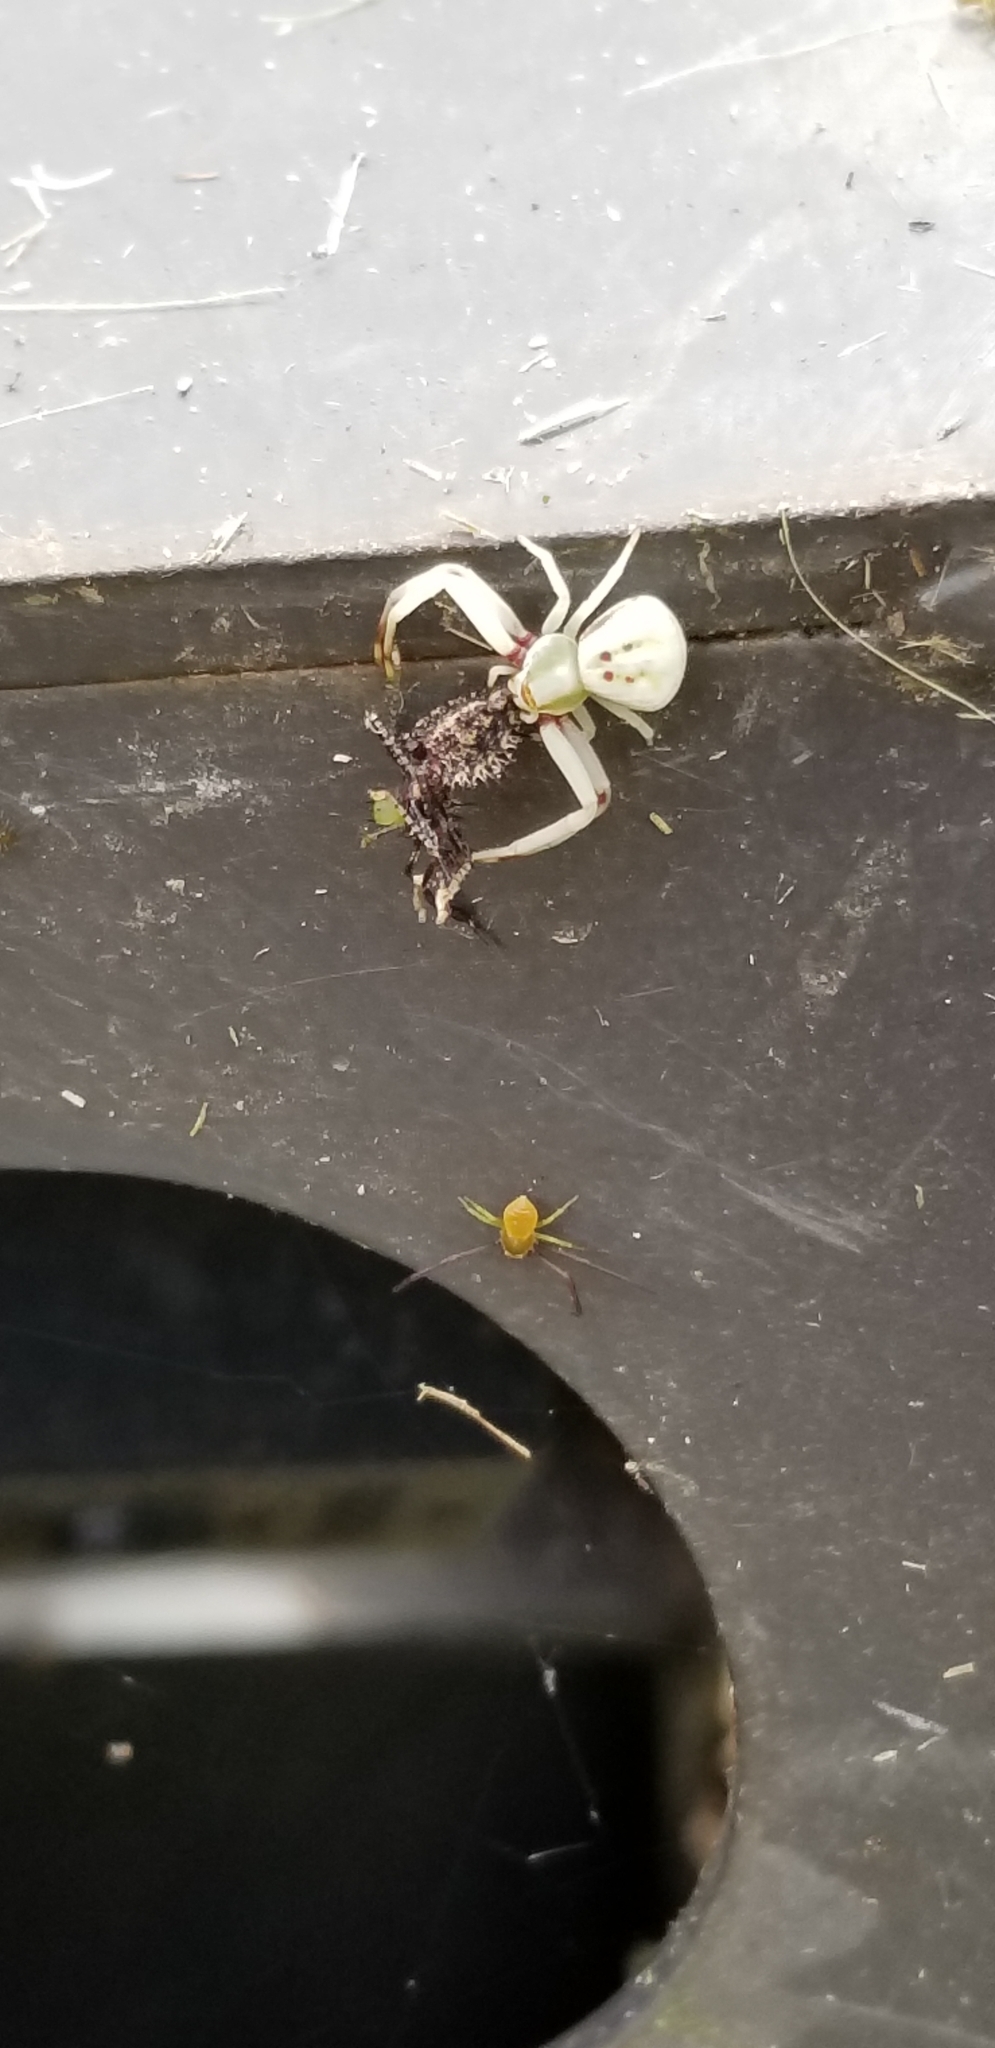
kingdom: Animalia
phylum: Arthropoda
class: Arachnida
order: Araneae
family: Thomisidae
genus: Misumenoides
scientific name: Misumenoides formosipes
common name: White-banded crab spider
